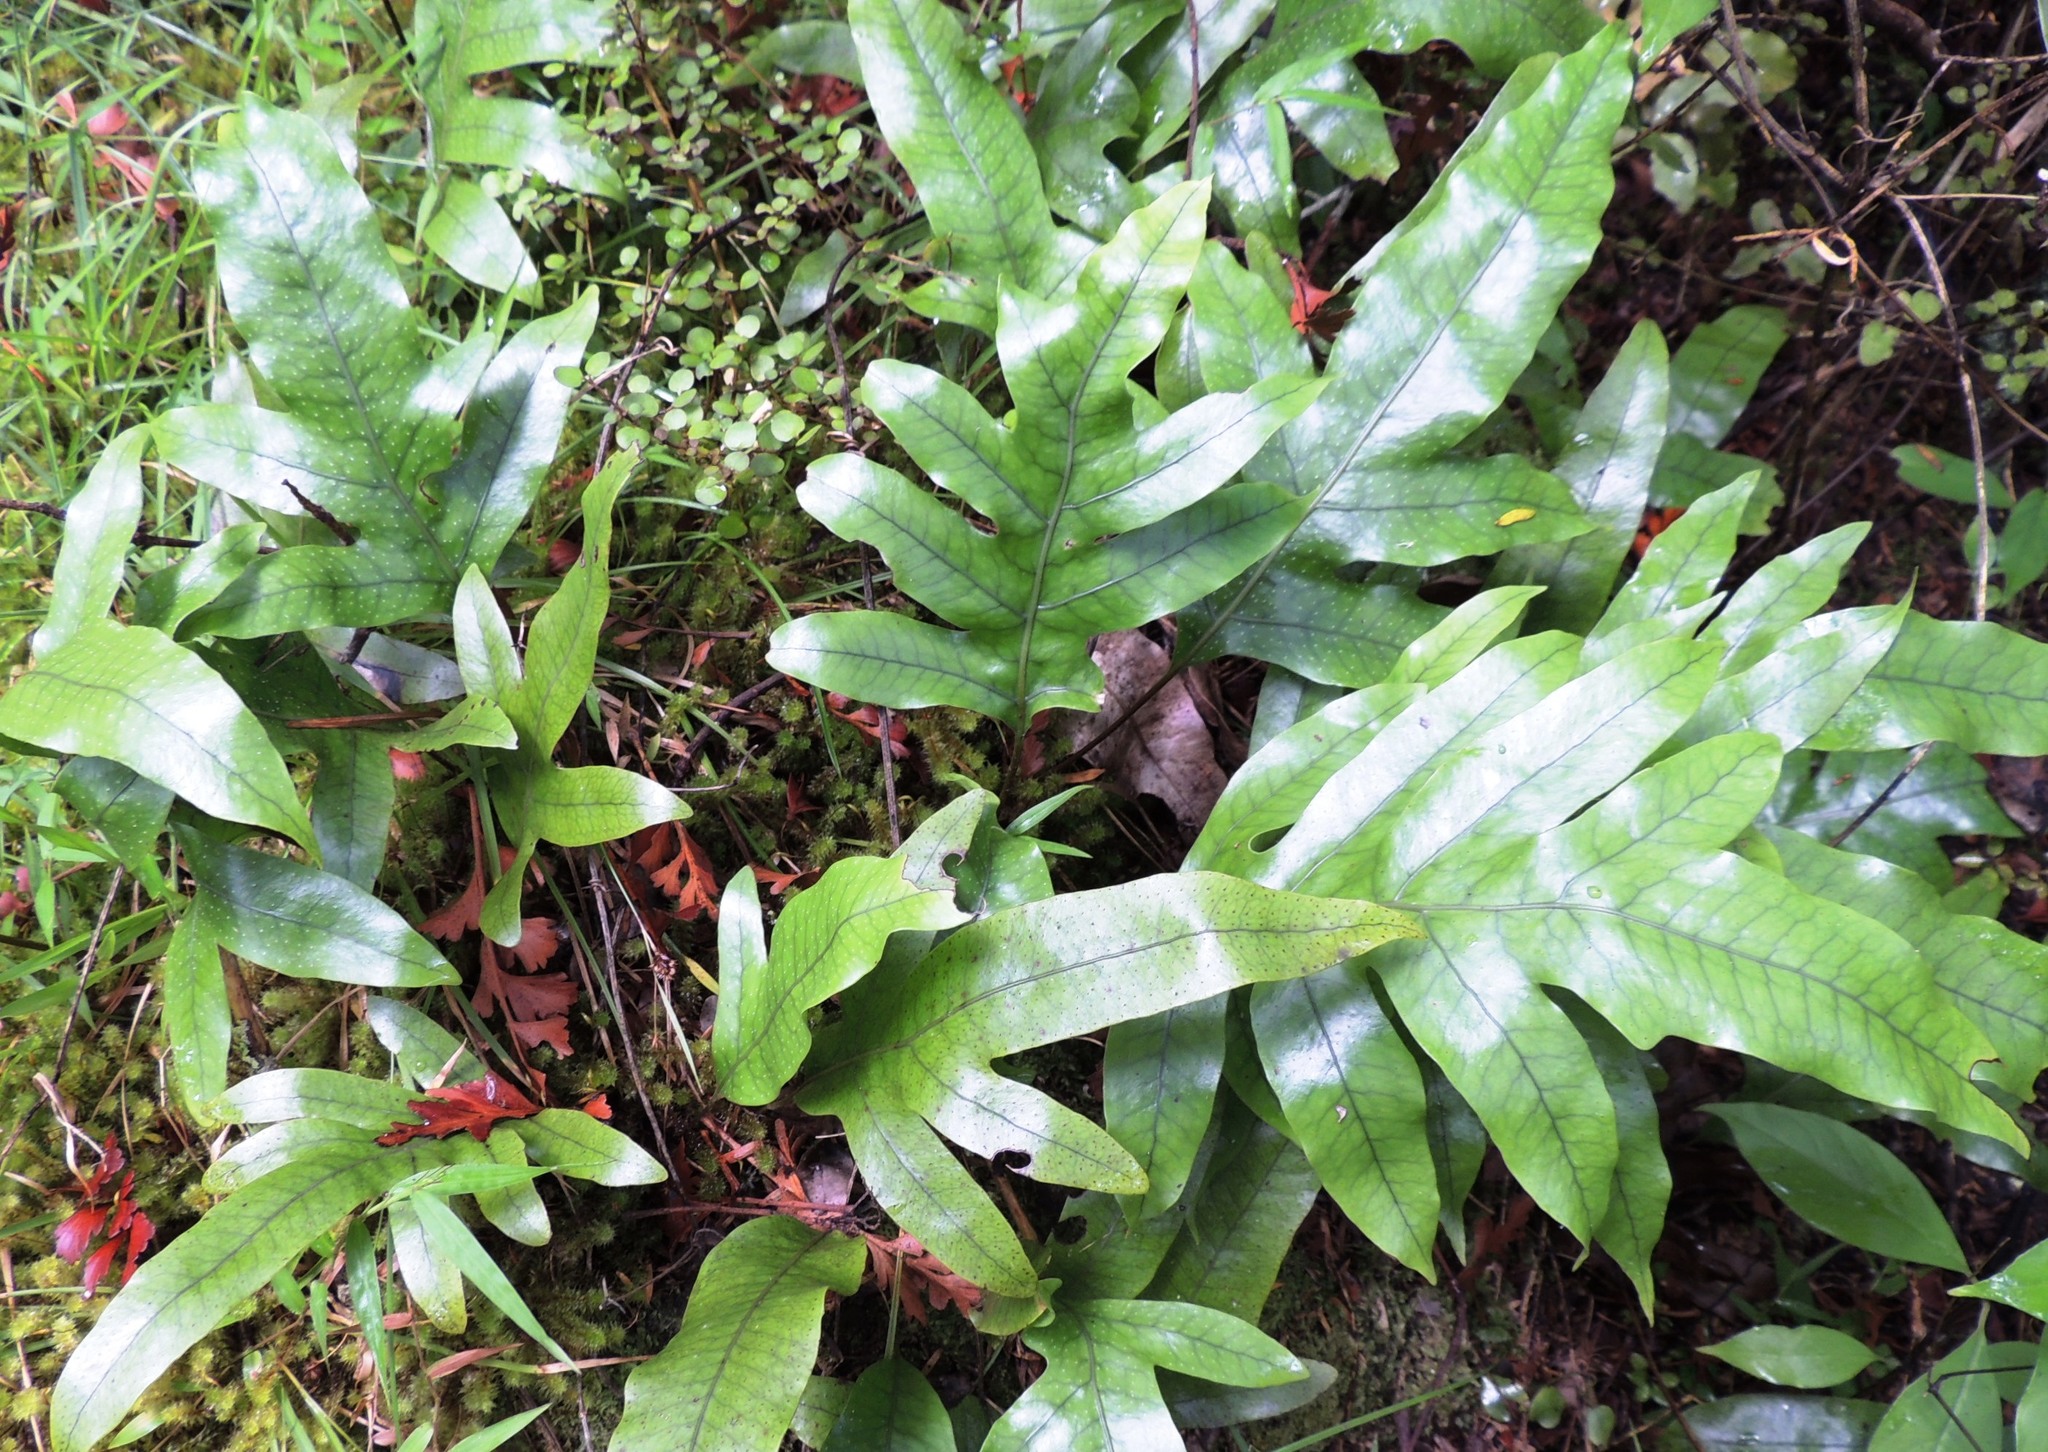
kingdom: Plantae
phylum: Tracheophyta
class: Polypodiopsida
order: Polypodiales
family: Polypodiaceae
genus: Lecanopteris
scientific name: Lecanopteris pustulata
